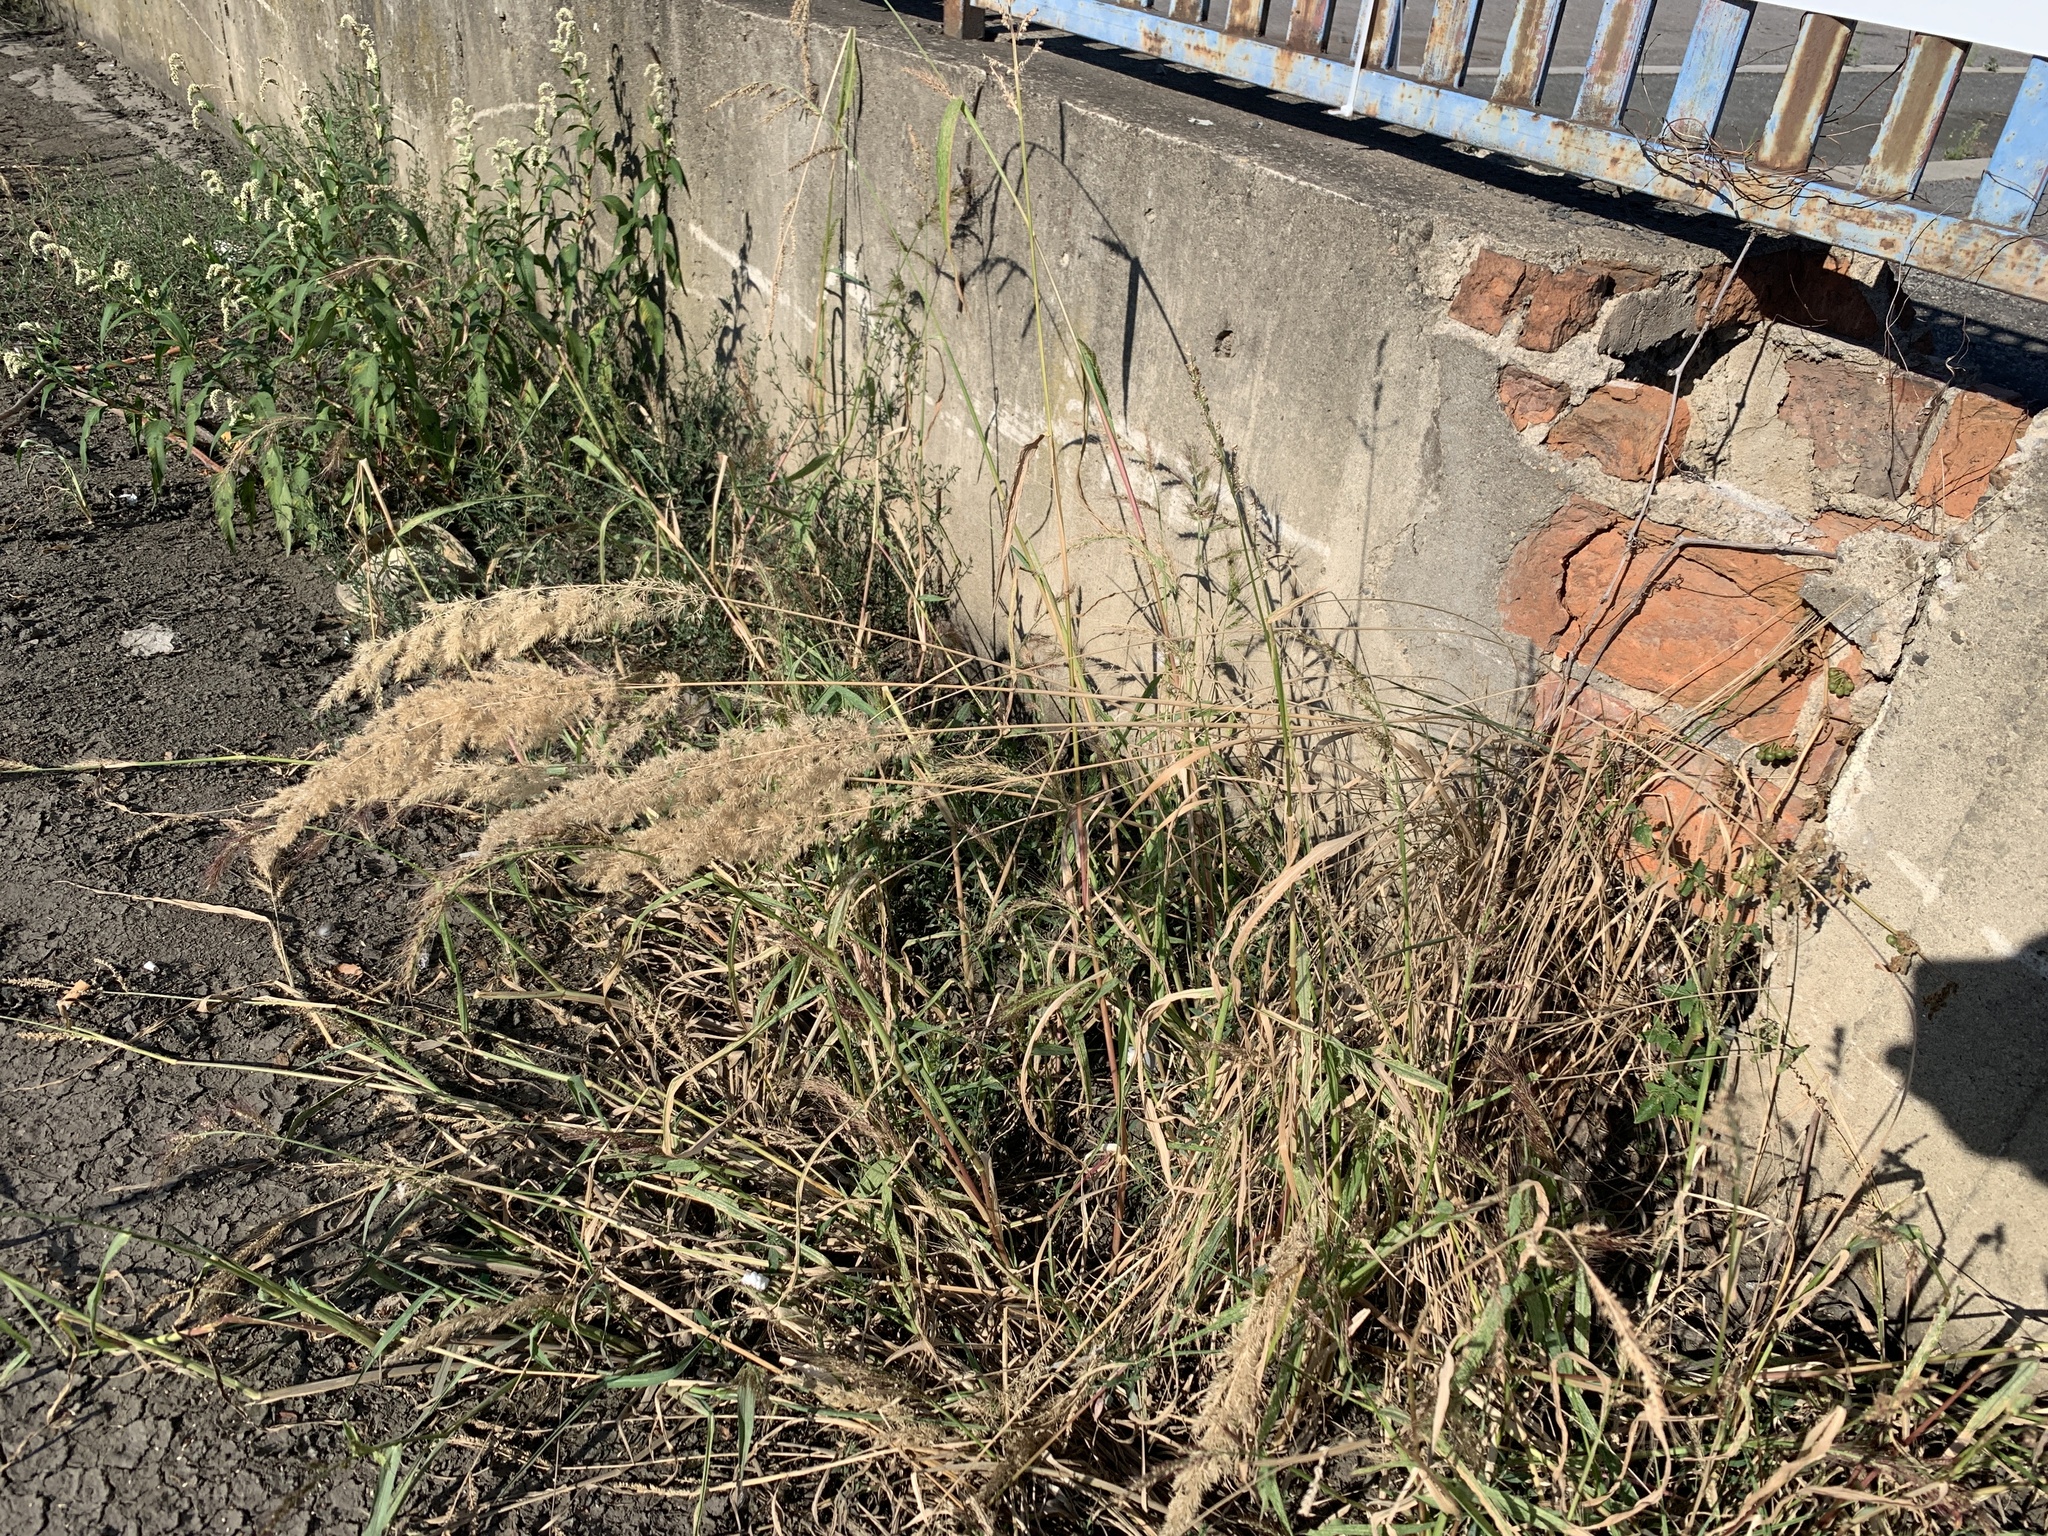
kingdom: Plantae
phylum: Tracheophyta
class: Liliopsida
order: Poales
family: Poaceae
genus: Calamagrostis
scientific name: Calamagrostis epigejos
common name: Wood small-reed
